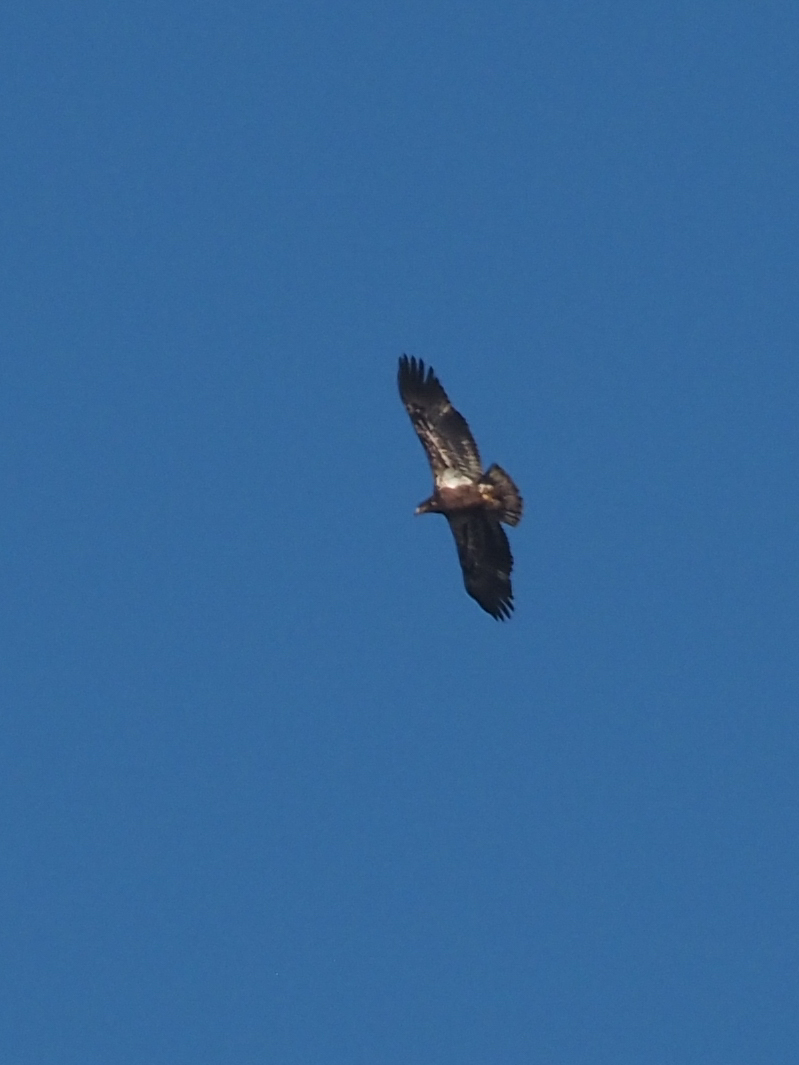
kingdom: Animalia
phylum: Chordata
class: Aves
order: Accipitriformes
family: Accipitridae
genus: Haliaeetus
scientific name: Haliaeetus leucocephalus
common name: Bald eagle
